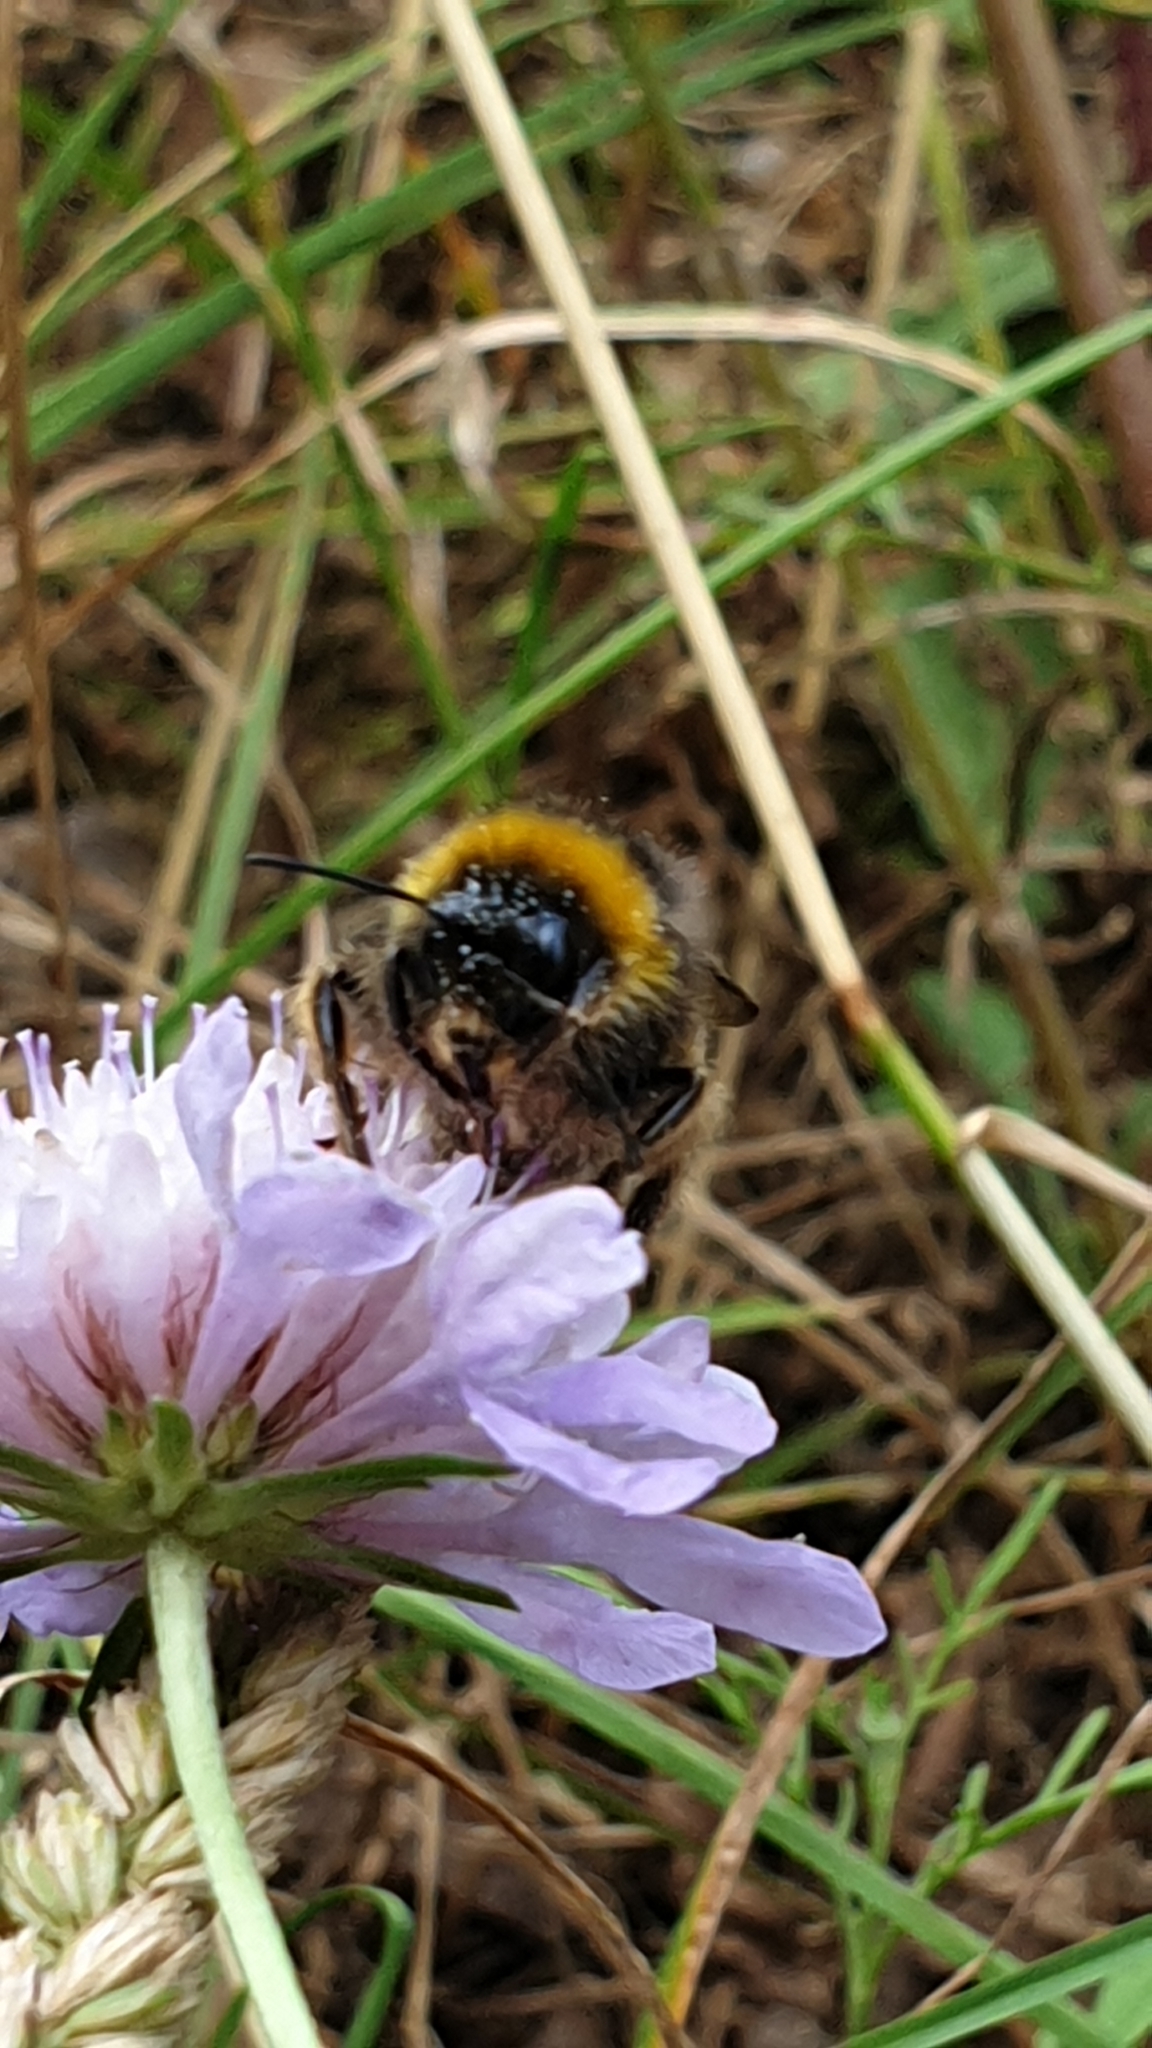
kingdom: Animalia
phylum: Arthropoda
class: Insecta
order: Hymenoptera
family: Apidae
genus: Bombus
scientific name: Bombus terrestris
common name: Buff-tailed bumblebee
